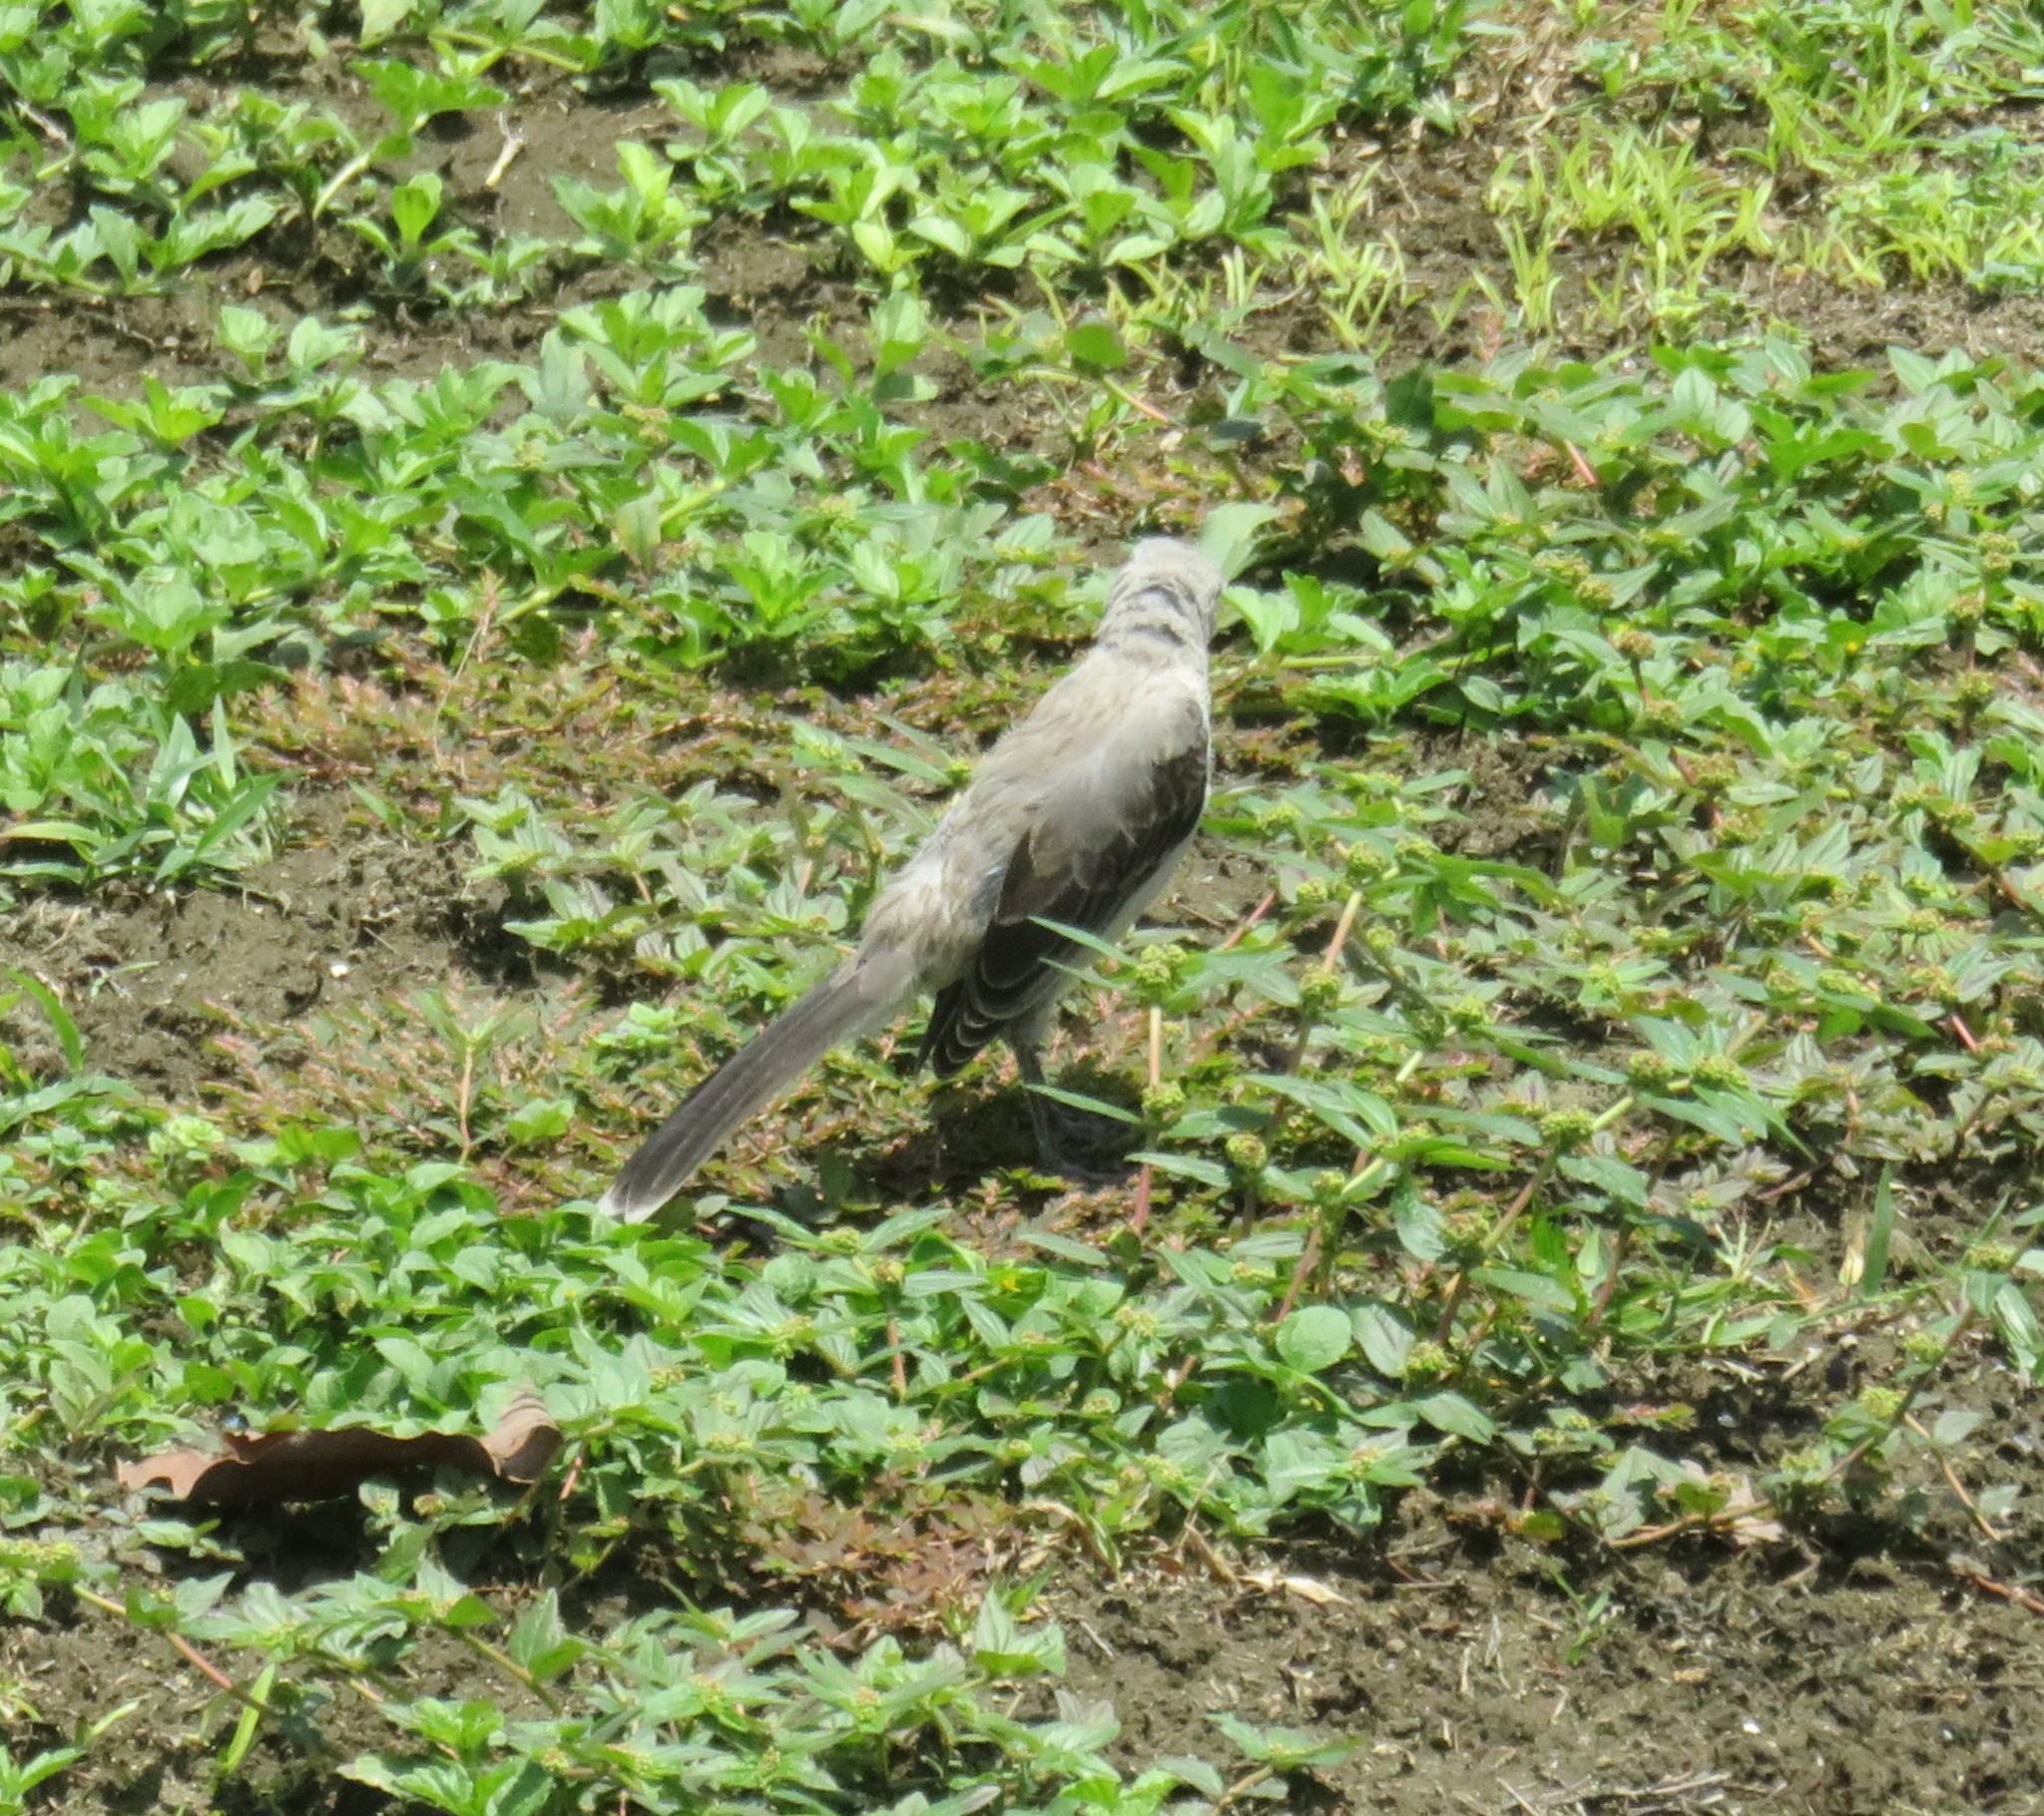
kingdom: Animalia
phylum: Chordata
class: Aves
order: Passeriformes
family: Mimidae
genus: Mimus
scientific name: Mimus gilvus
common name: Tropical mockingbird
